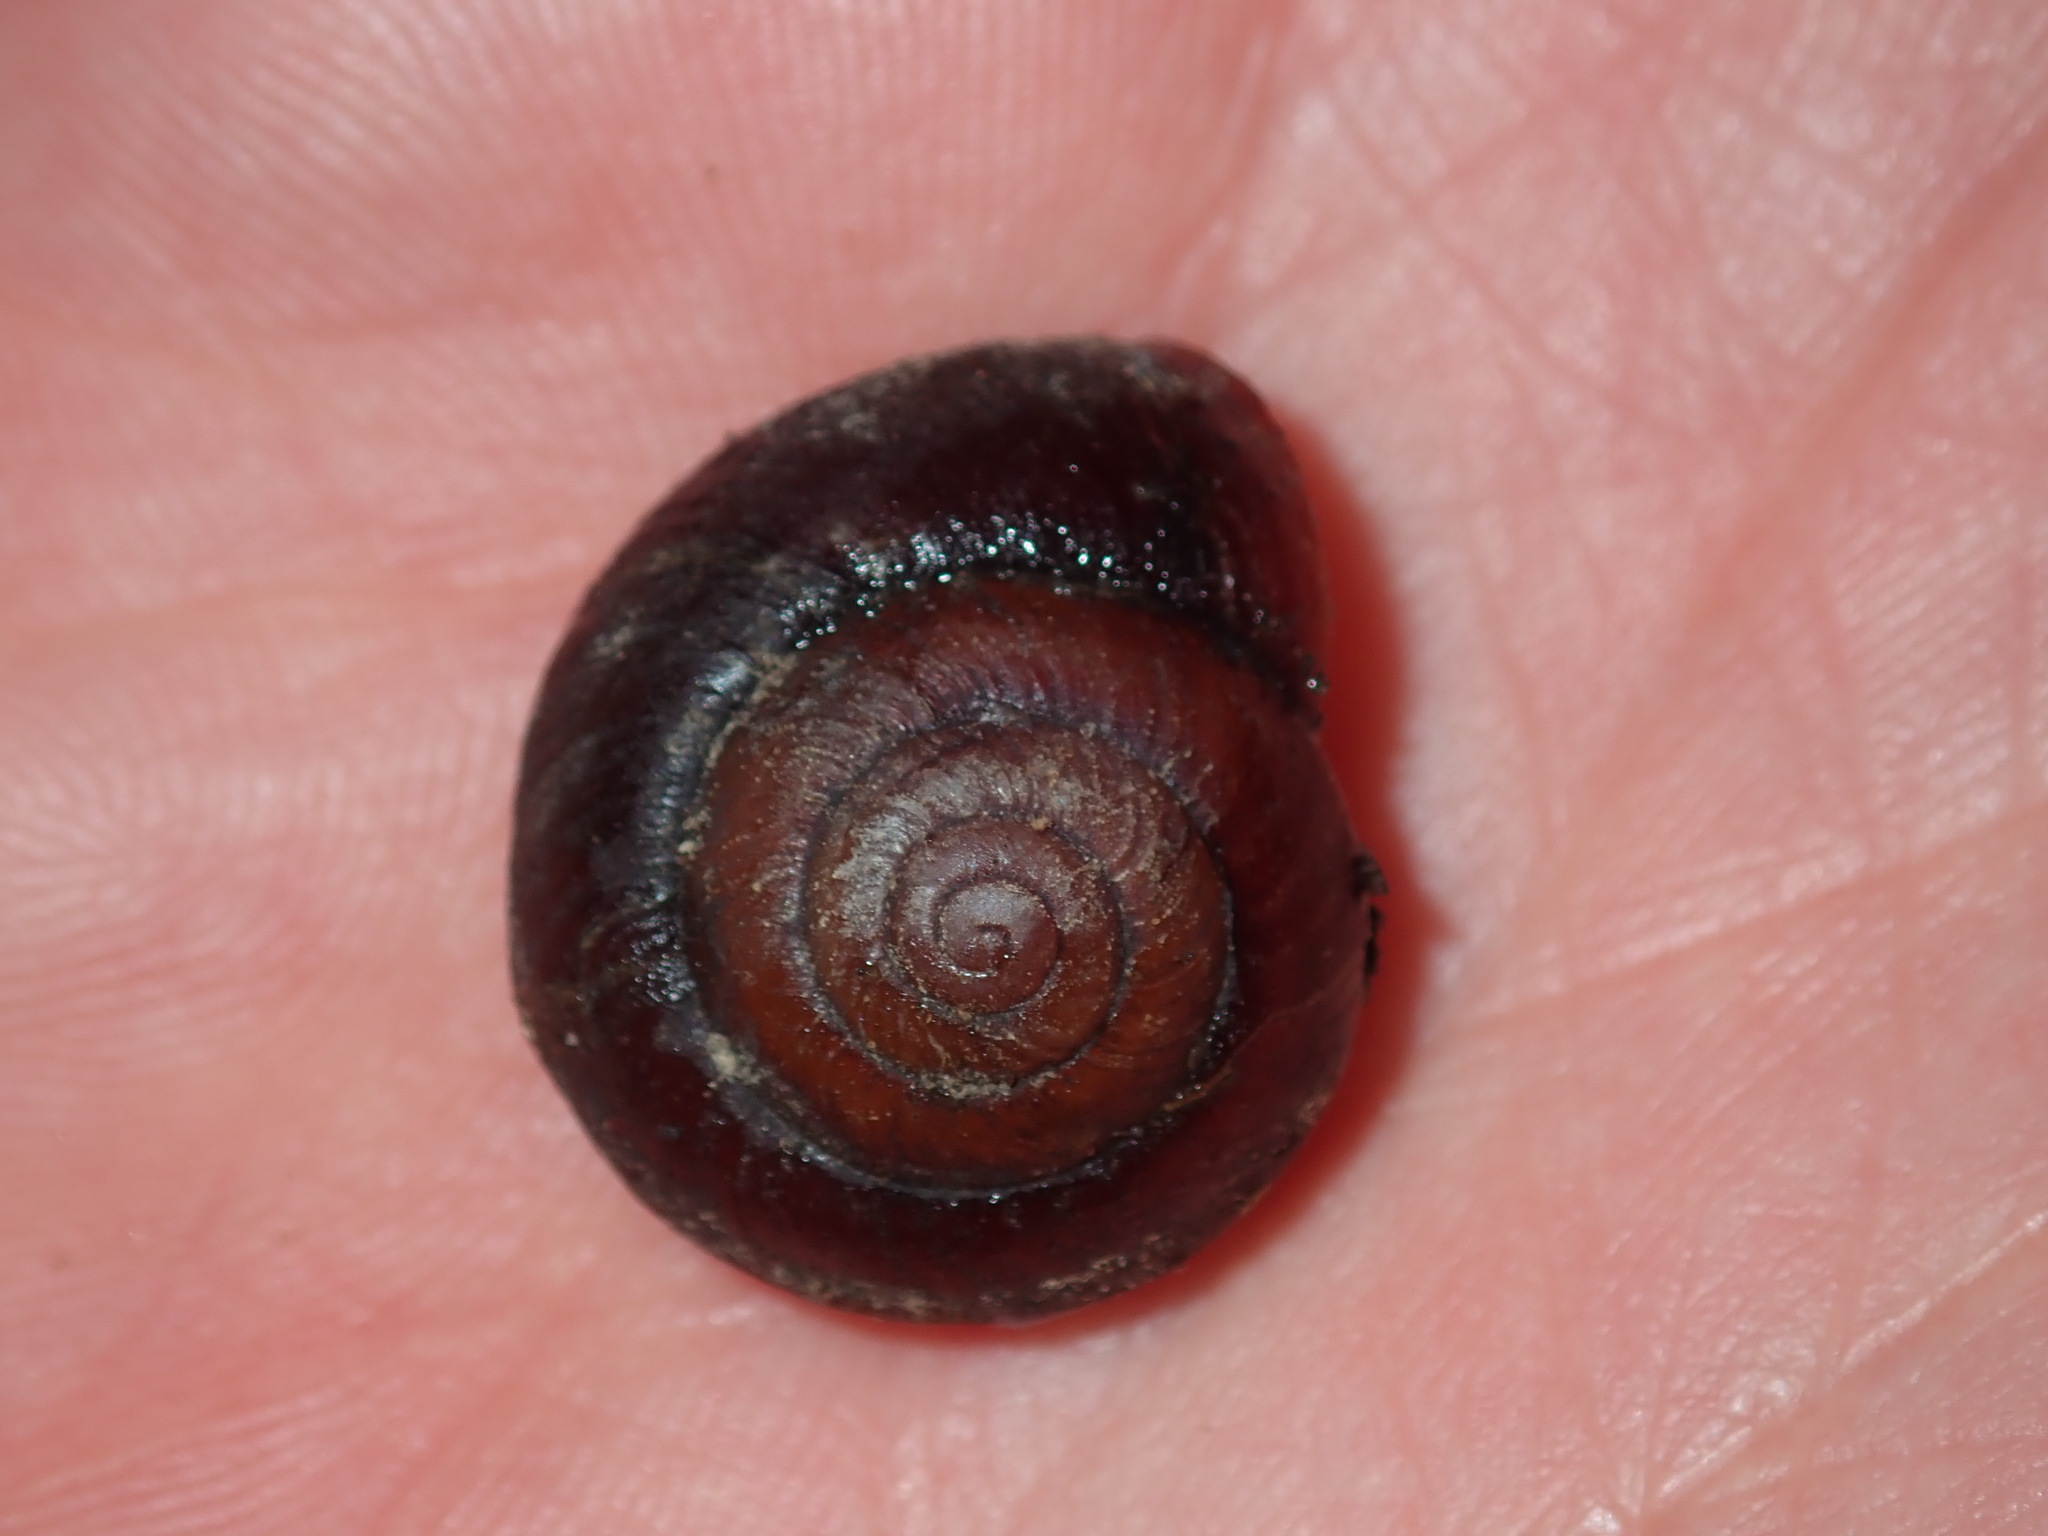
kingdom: Animalia
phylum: Mollusca
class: Gastropoda
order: Stylommatophora
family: Camaenidae
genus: Sauroconcha
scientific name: Sauroconcha sheai
